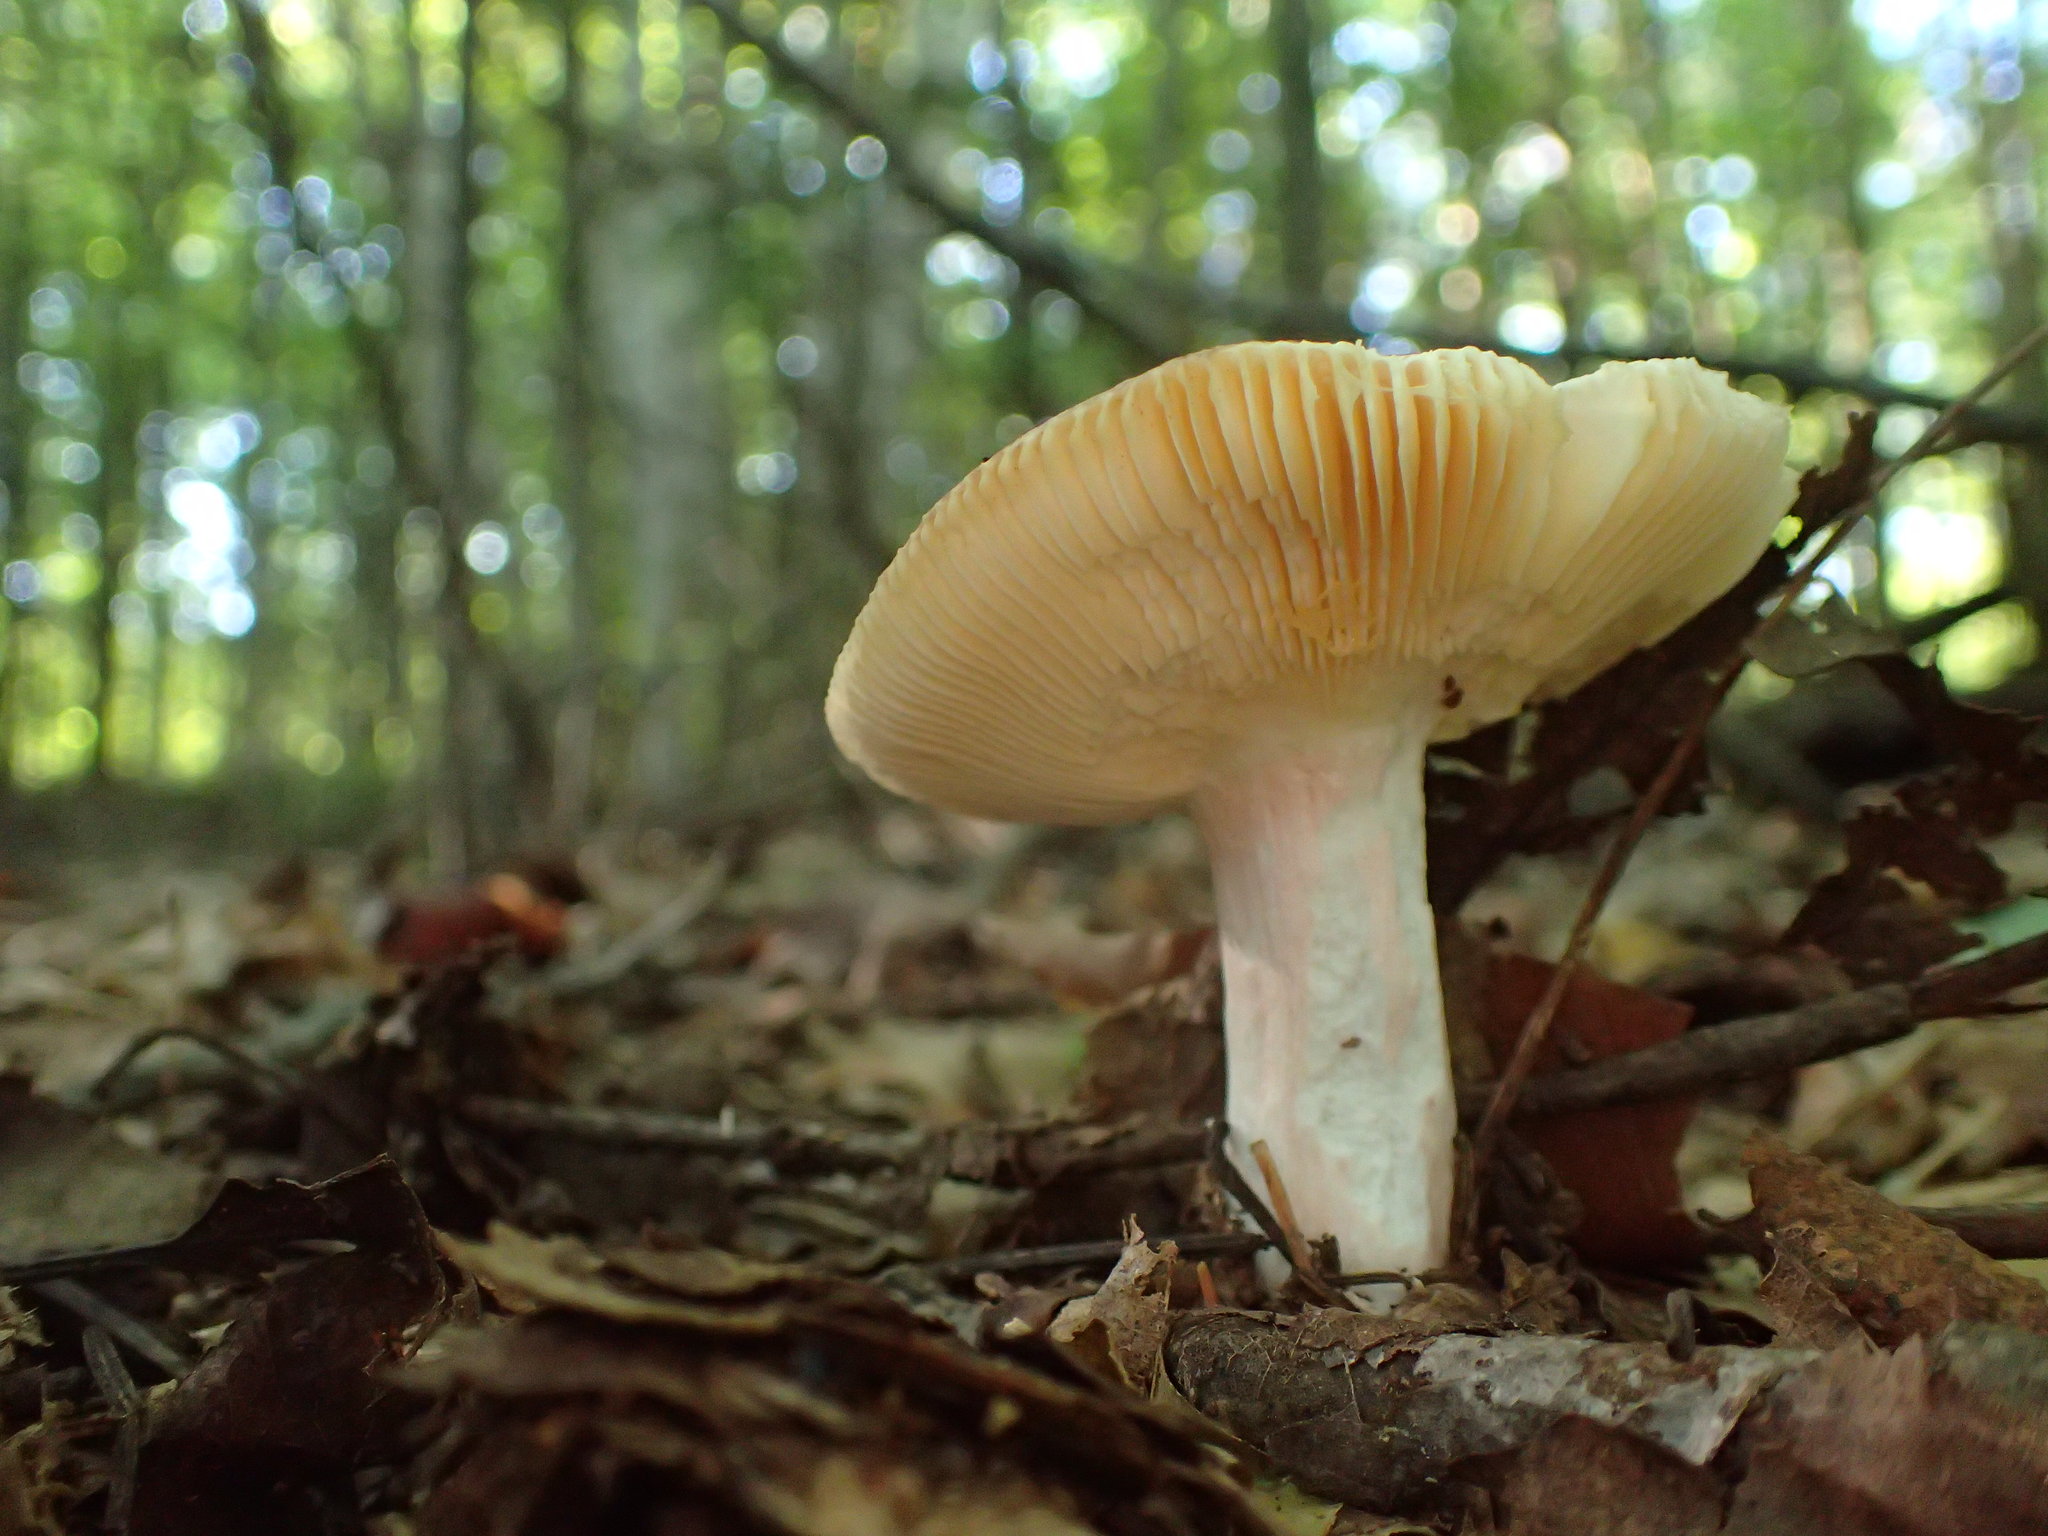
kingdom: Fungi
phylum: Basidiomycota
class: Agaricomycetes
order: Russulales
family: Russulaceae
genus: Russula
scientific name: Russula
